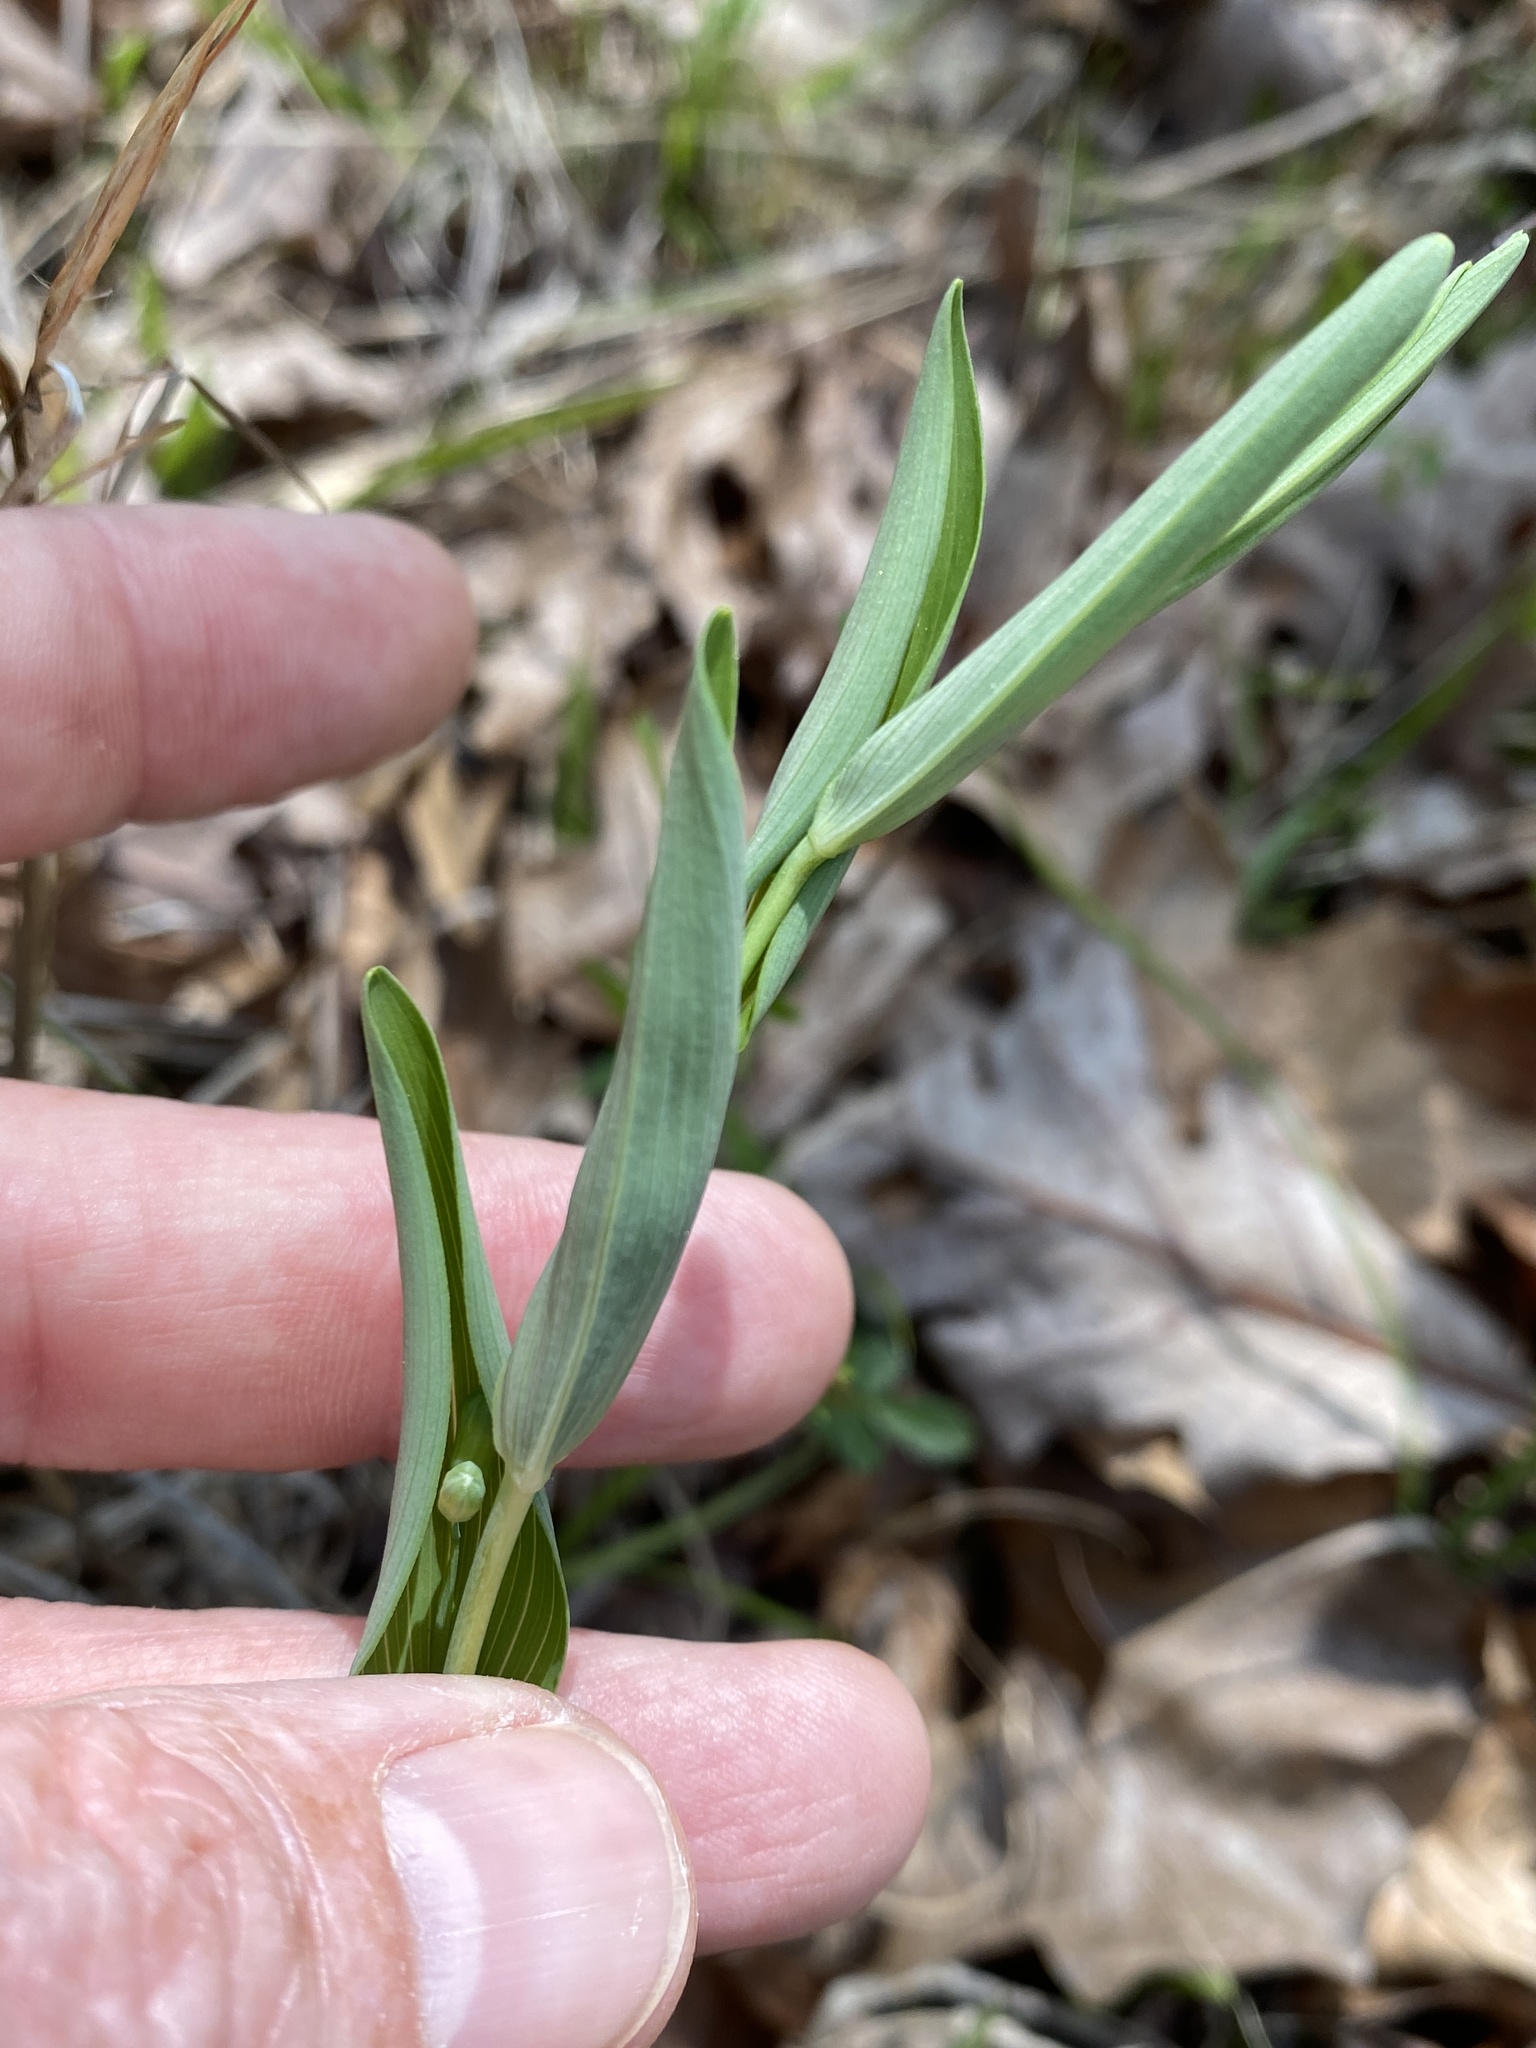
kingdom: Plantae
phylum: Tracheophyta
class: Liliopsida
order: Asparagales
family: Asparagaceae
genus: Polygonatum
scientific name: Polygonatum biflorum
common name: American solomon's-seal
